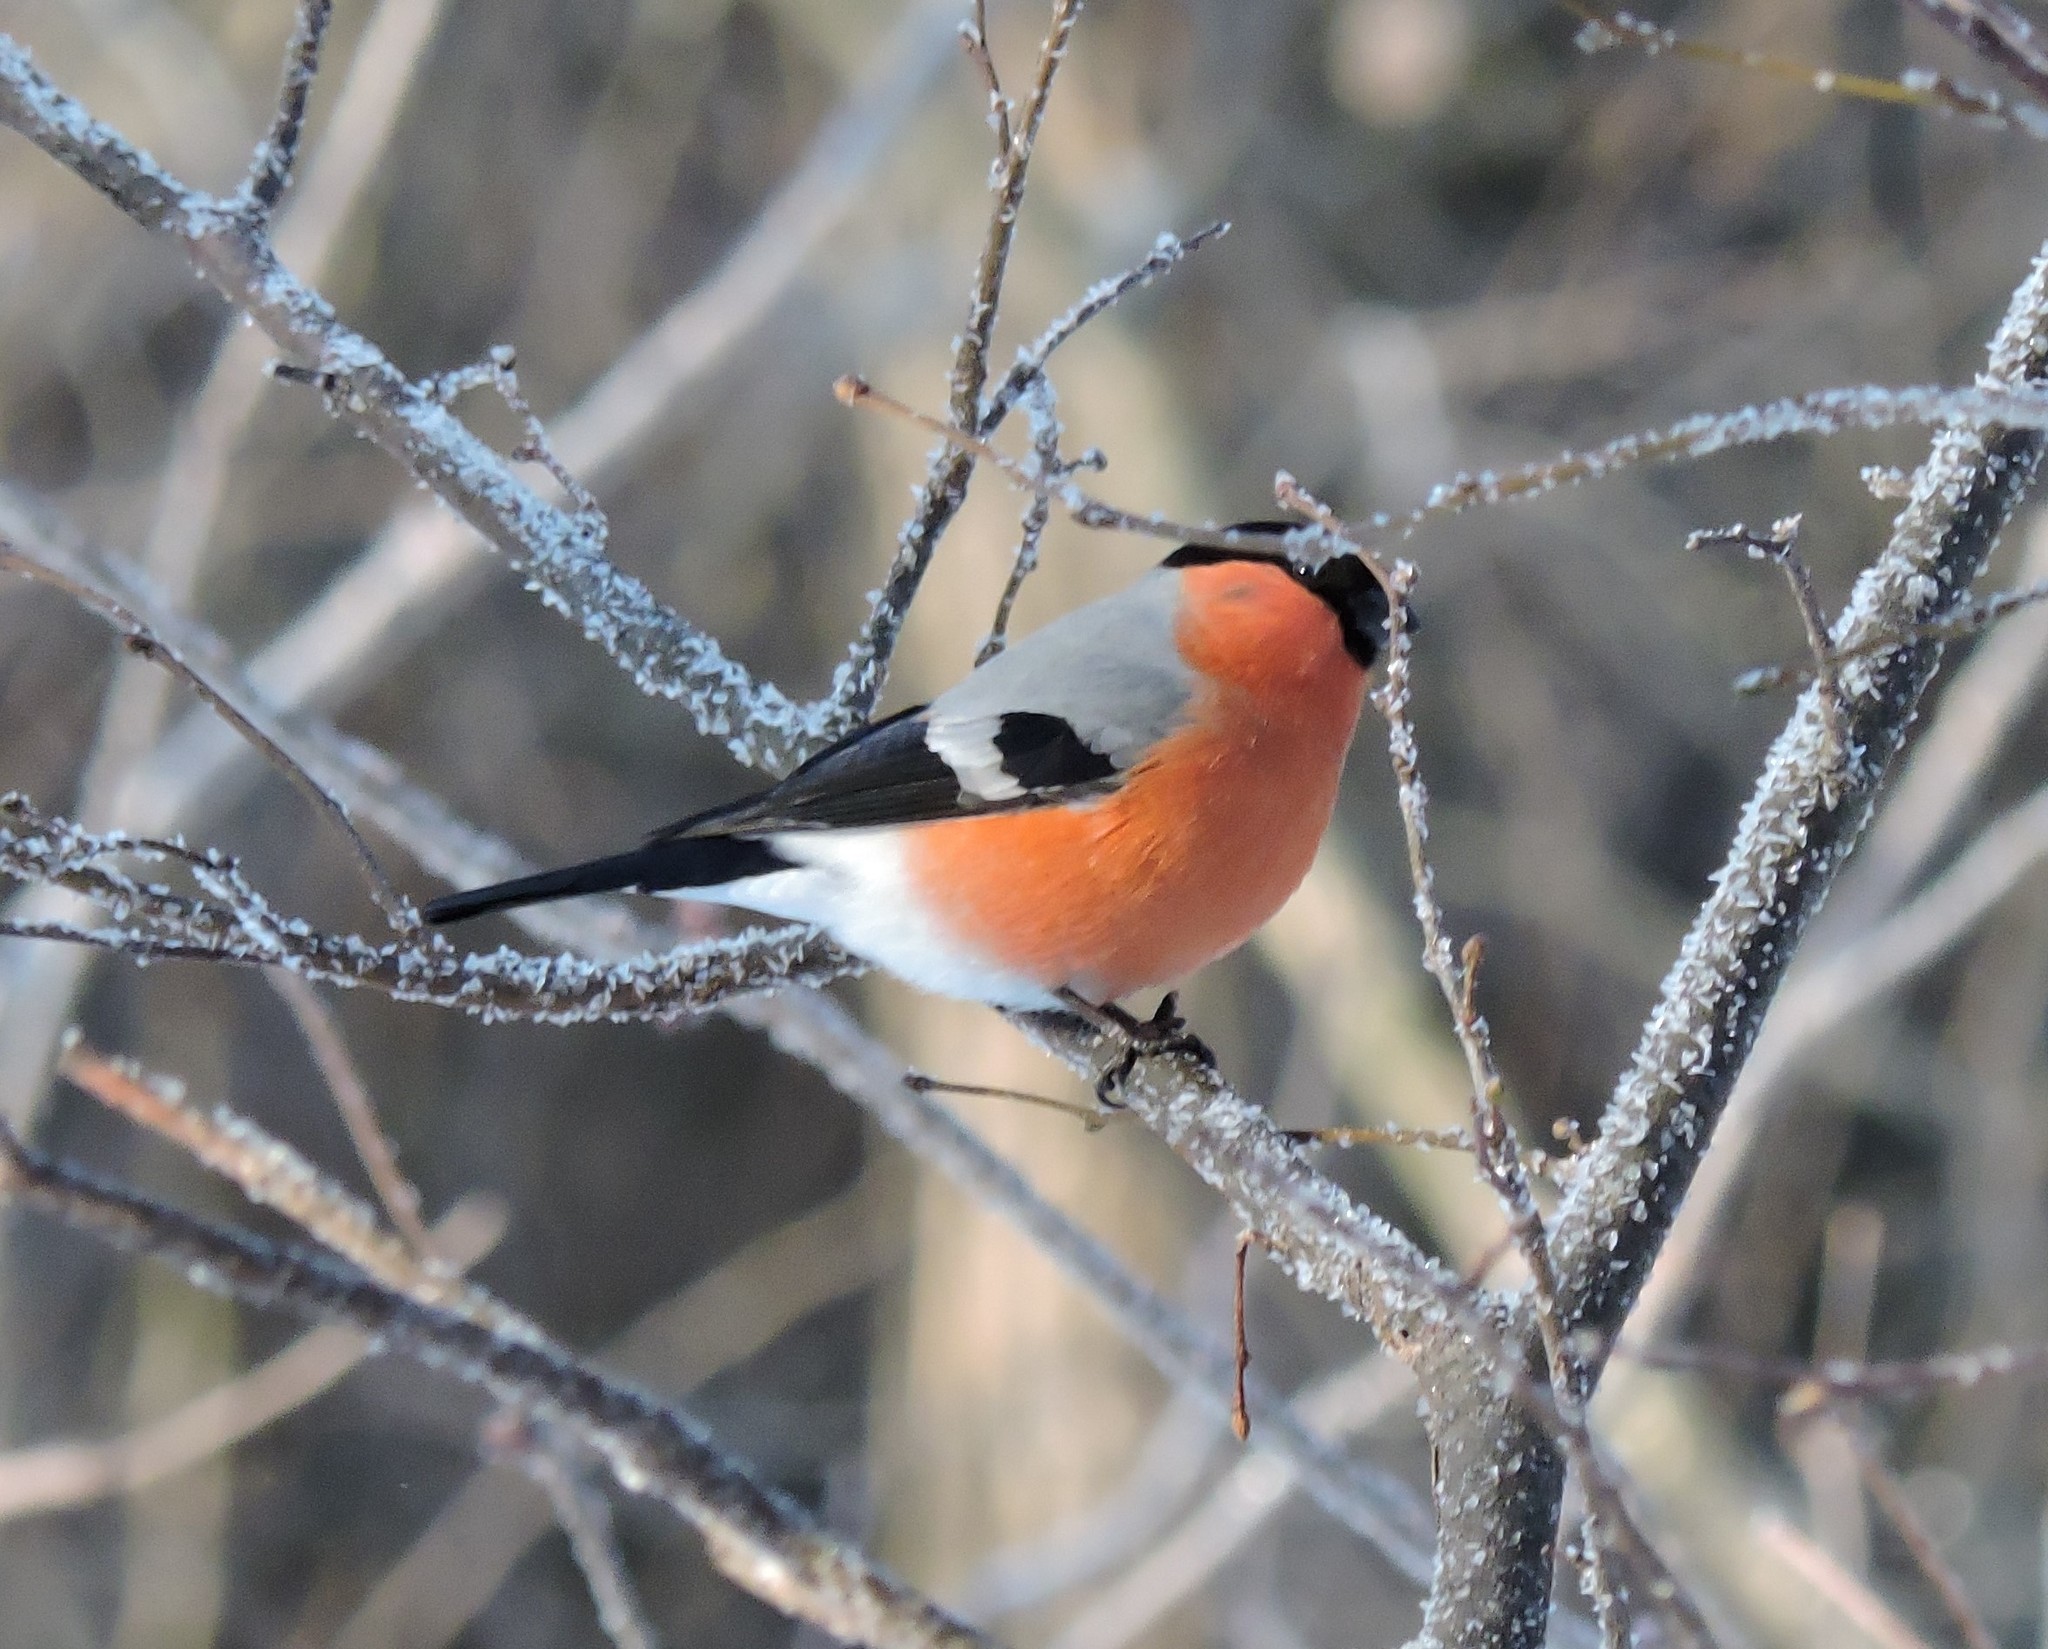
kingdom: Animalia
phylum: Chordata
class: Aves
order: Passeriformes
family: Fringillidae
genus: Pyrrhula
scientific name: Pyrrhula pyrrhula
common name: Eurasian bullfinch
